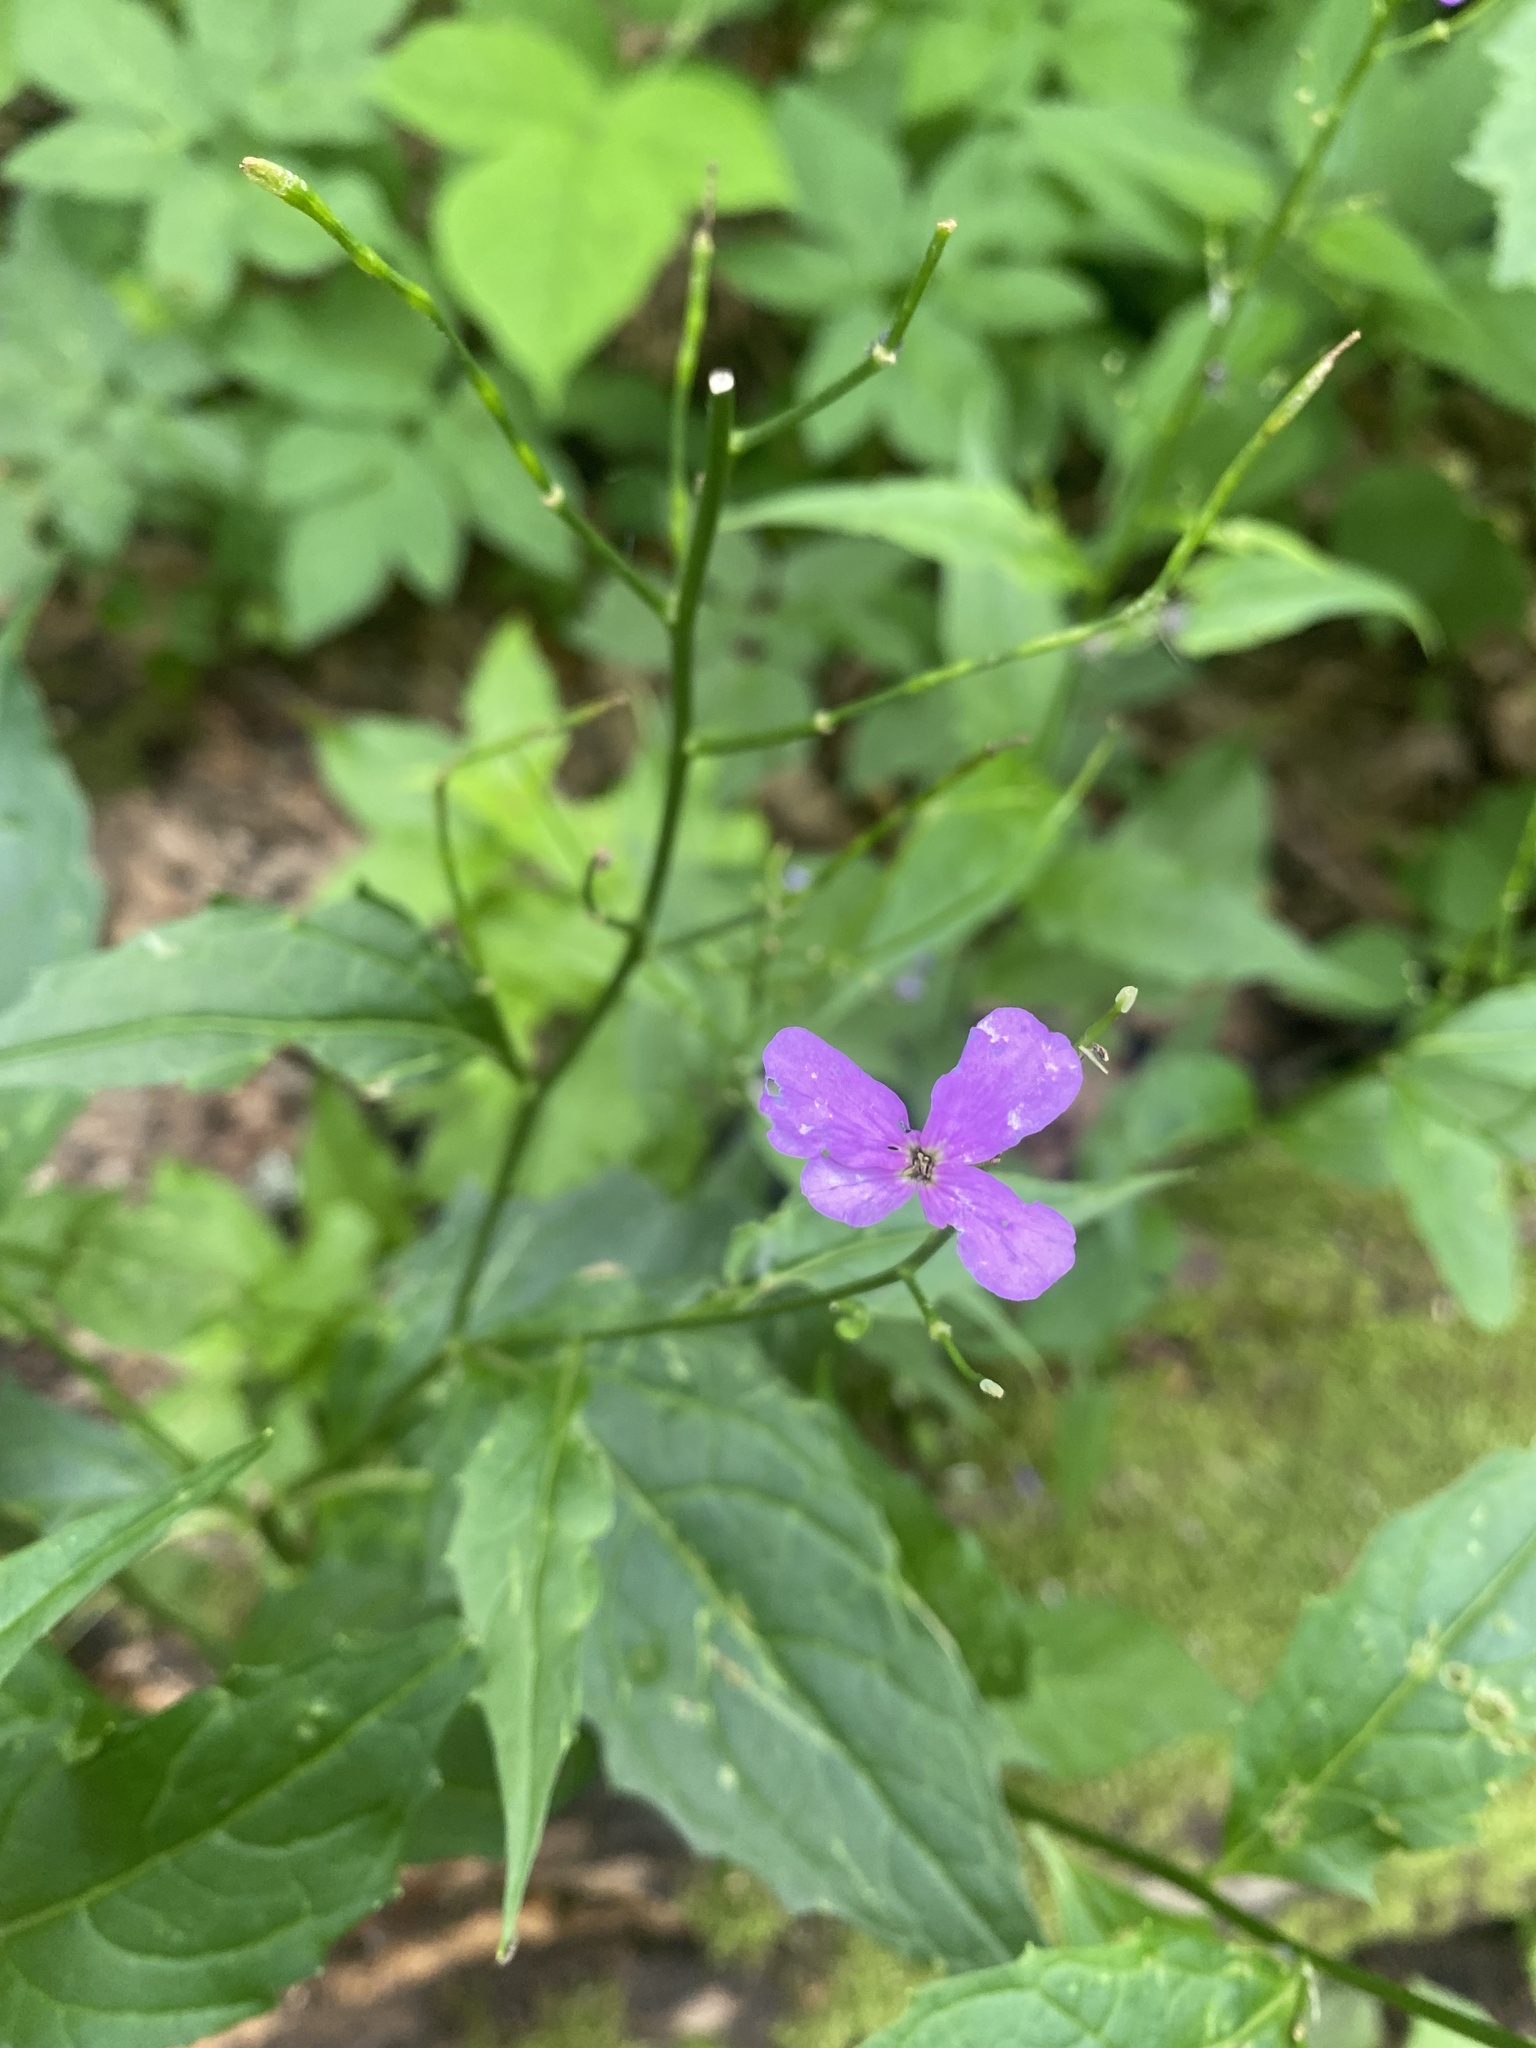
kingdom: Plantae
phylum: Tracheophyta
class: Magnoliopsida
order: Brassicales
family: Brassicaceae
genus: Hesperis
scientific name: Hesperis matronalis
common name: Dame's-violet
